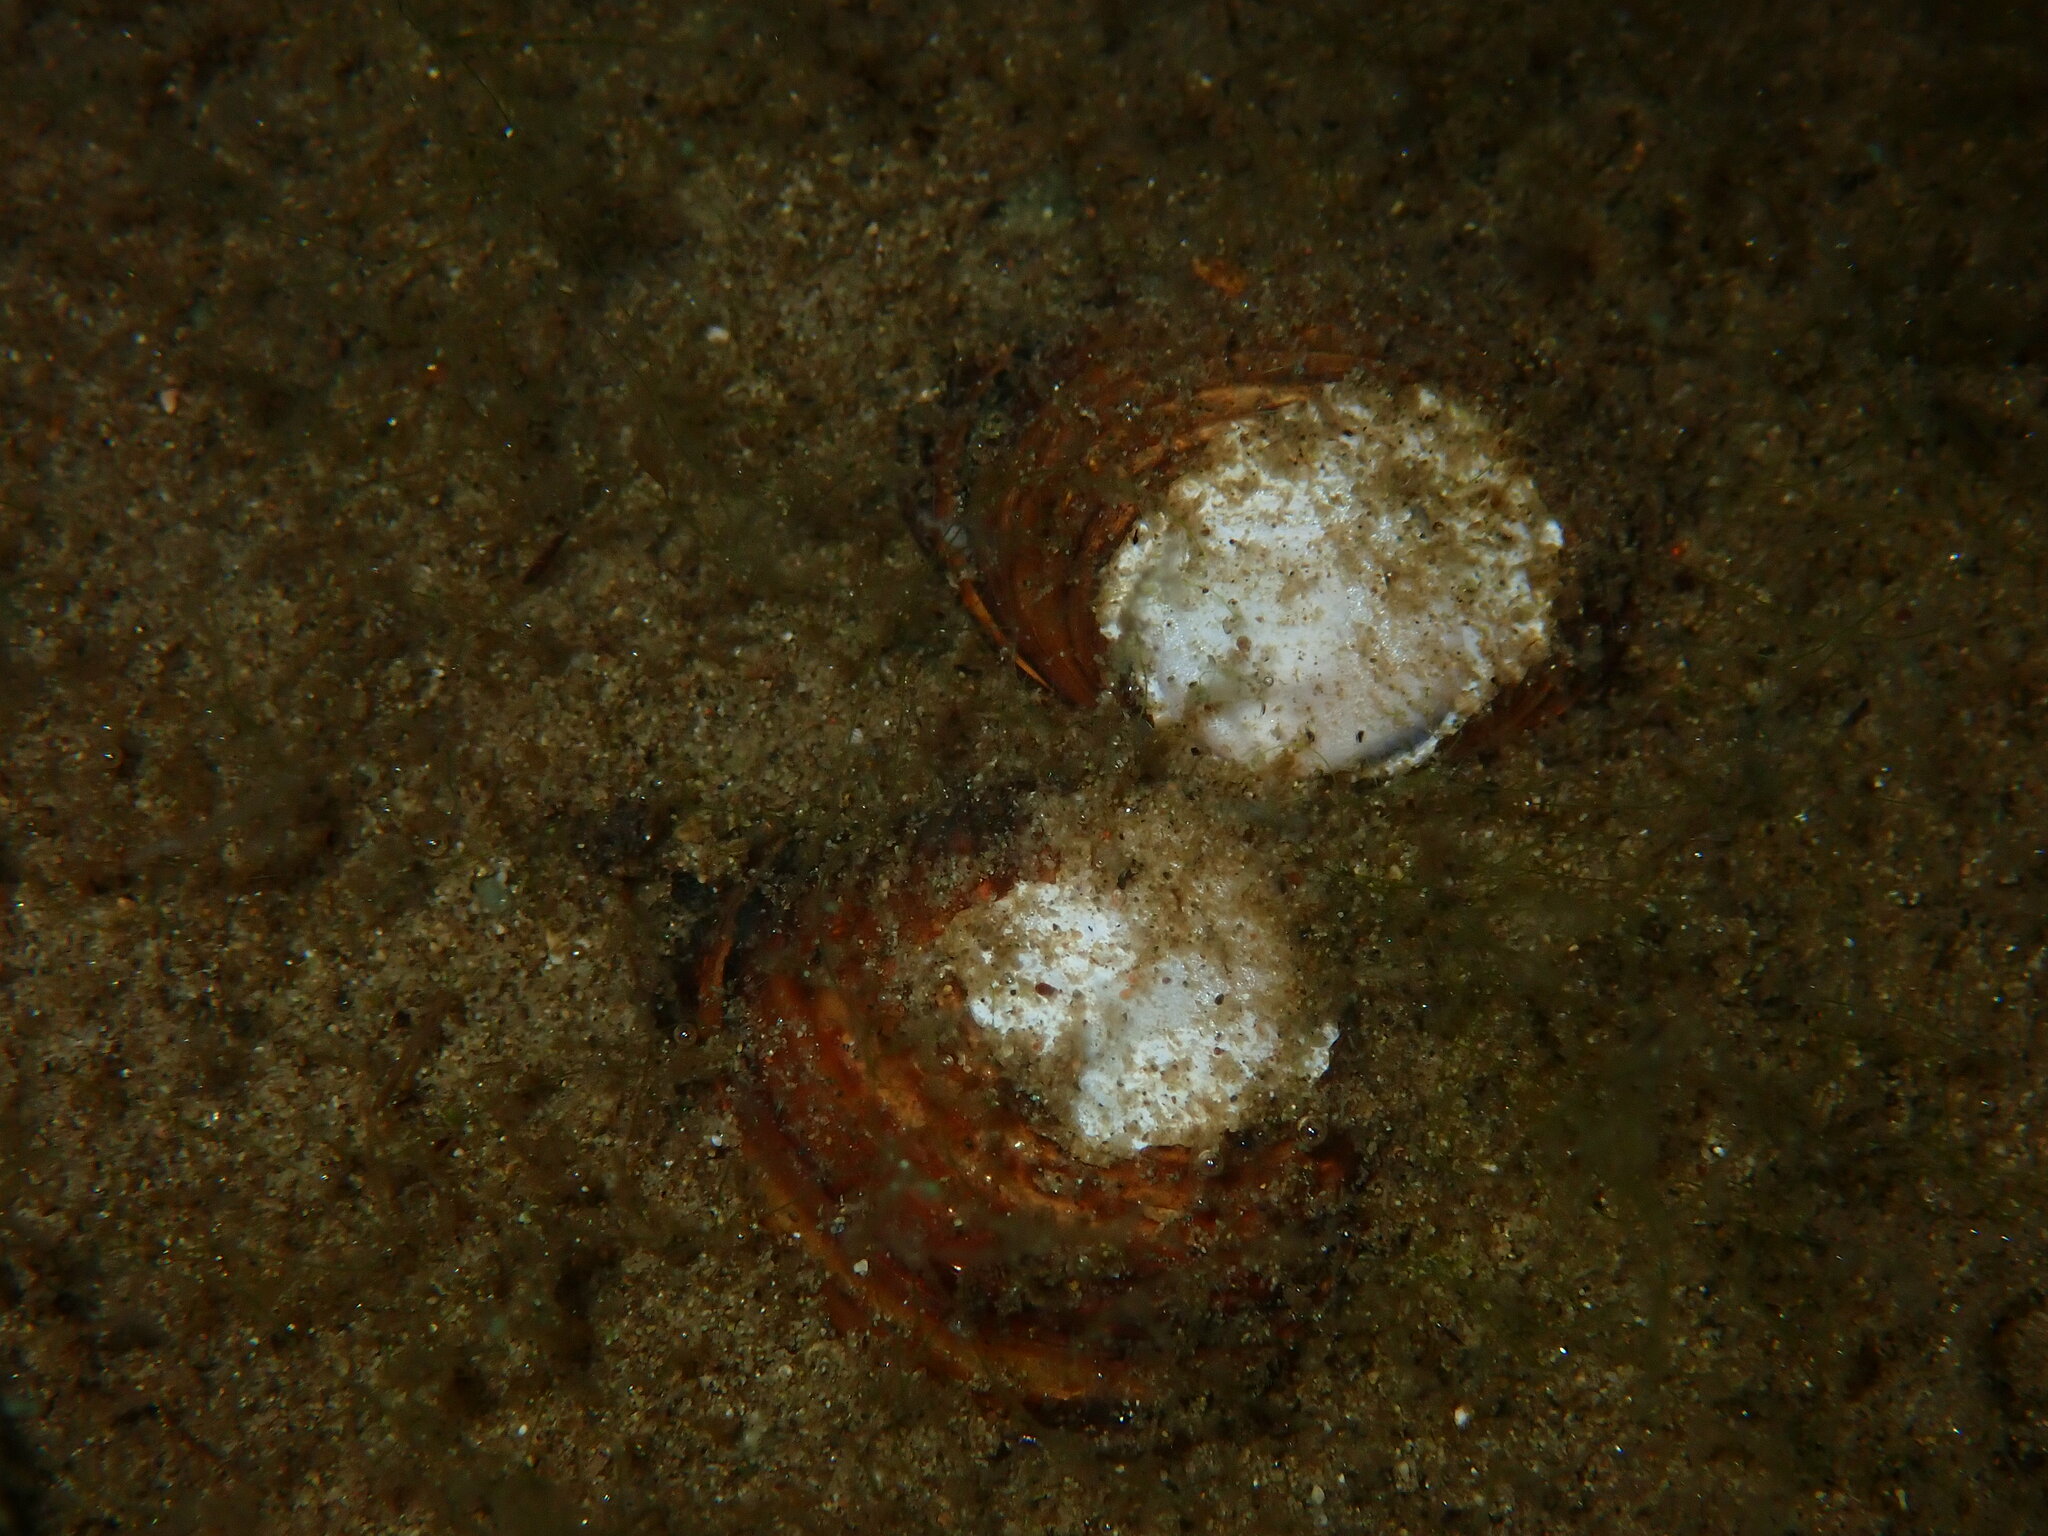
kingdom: Animalia
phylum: Mollusca
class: Bivalvia
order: Venerida
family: Cyrenidae
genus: Corbicula
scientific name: Corbicula fluminea
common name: Asian clam
